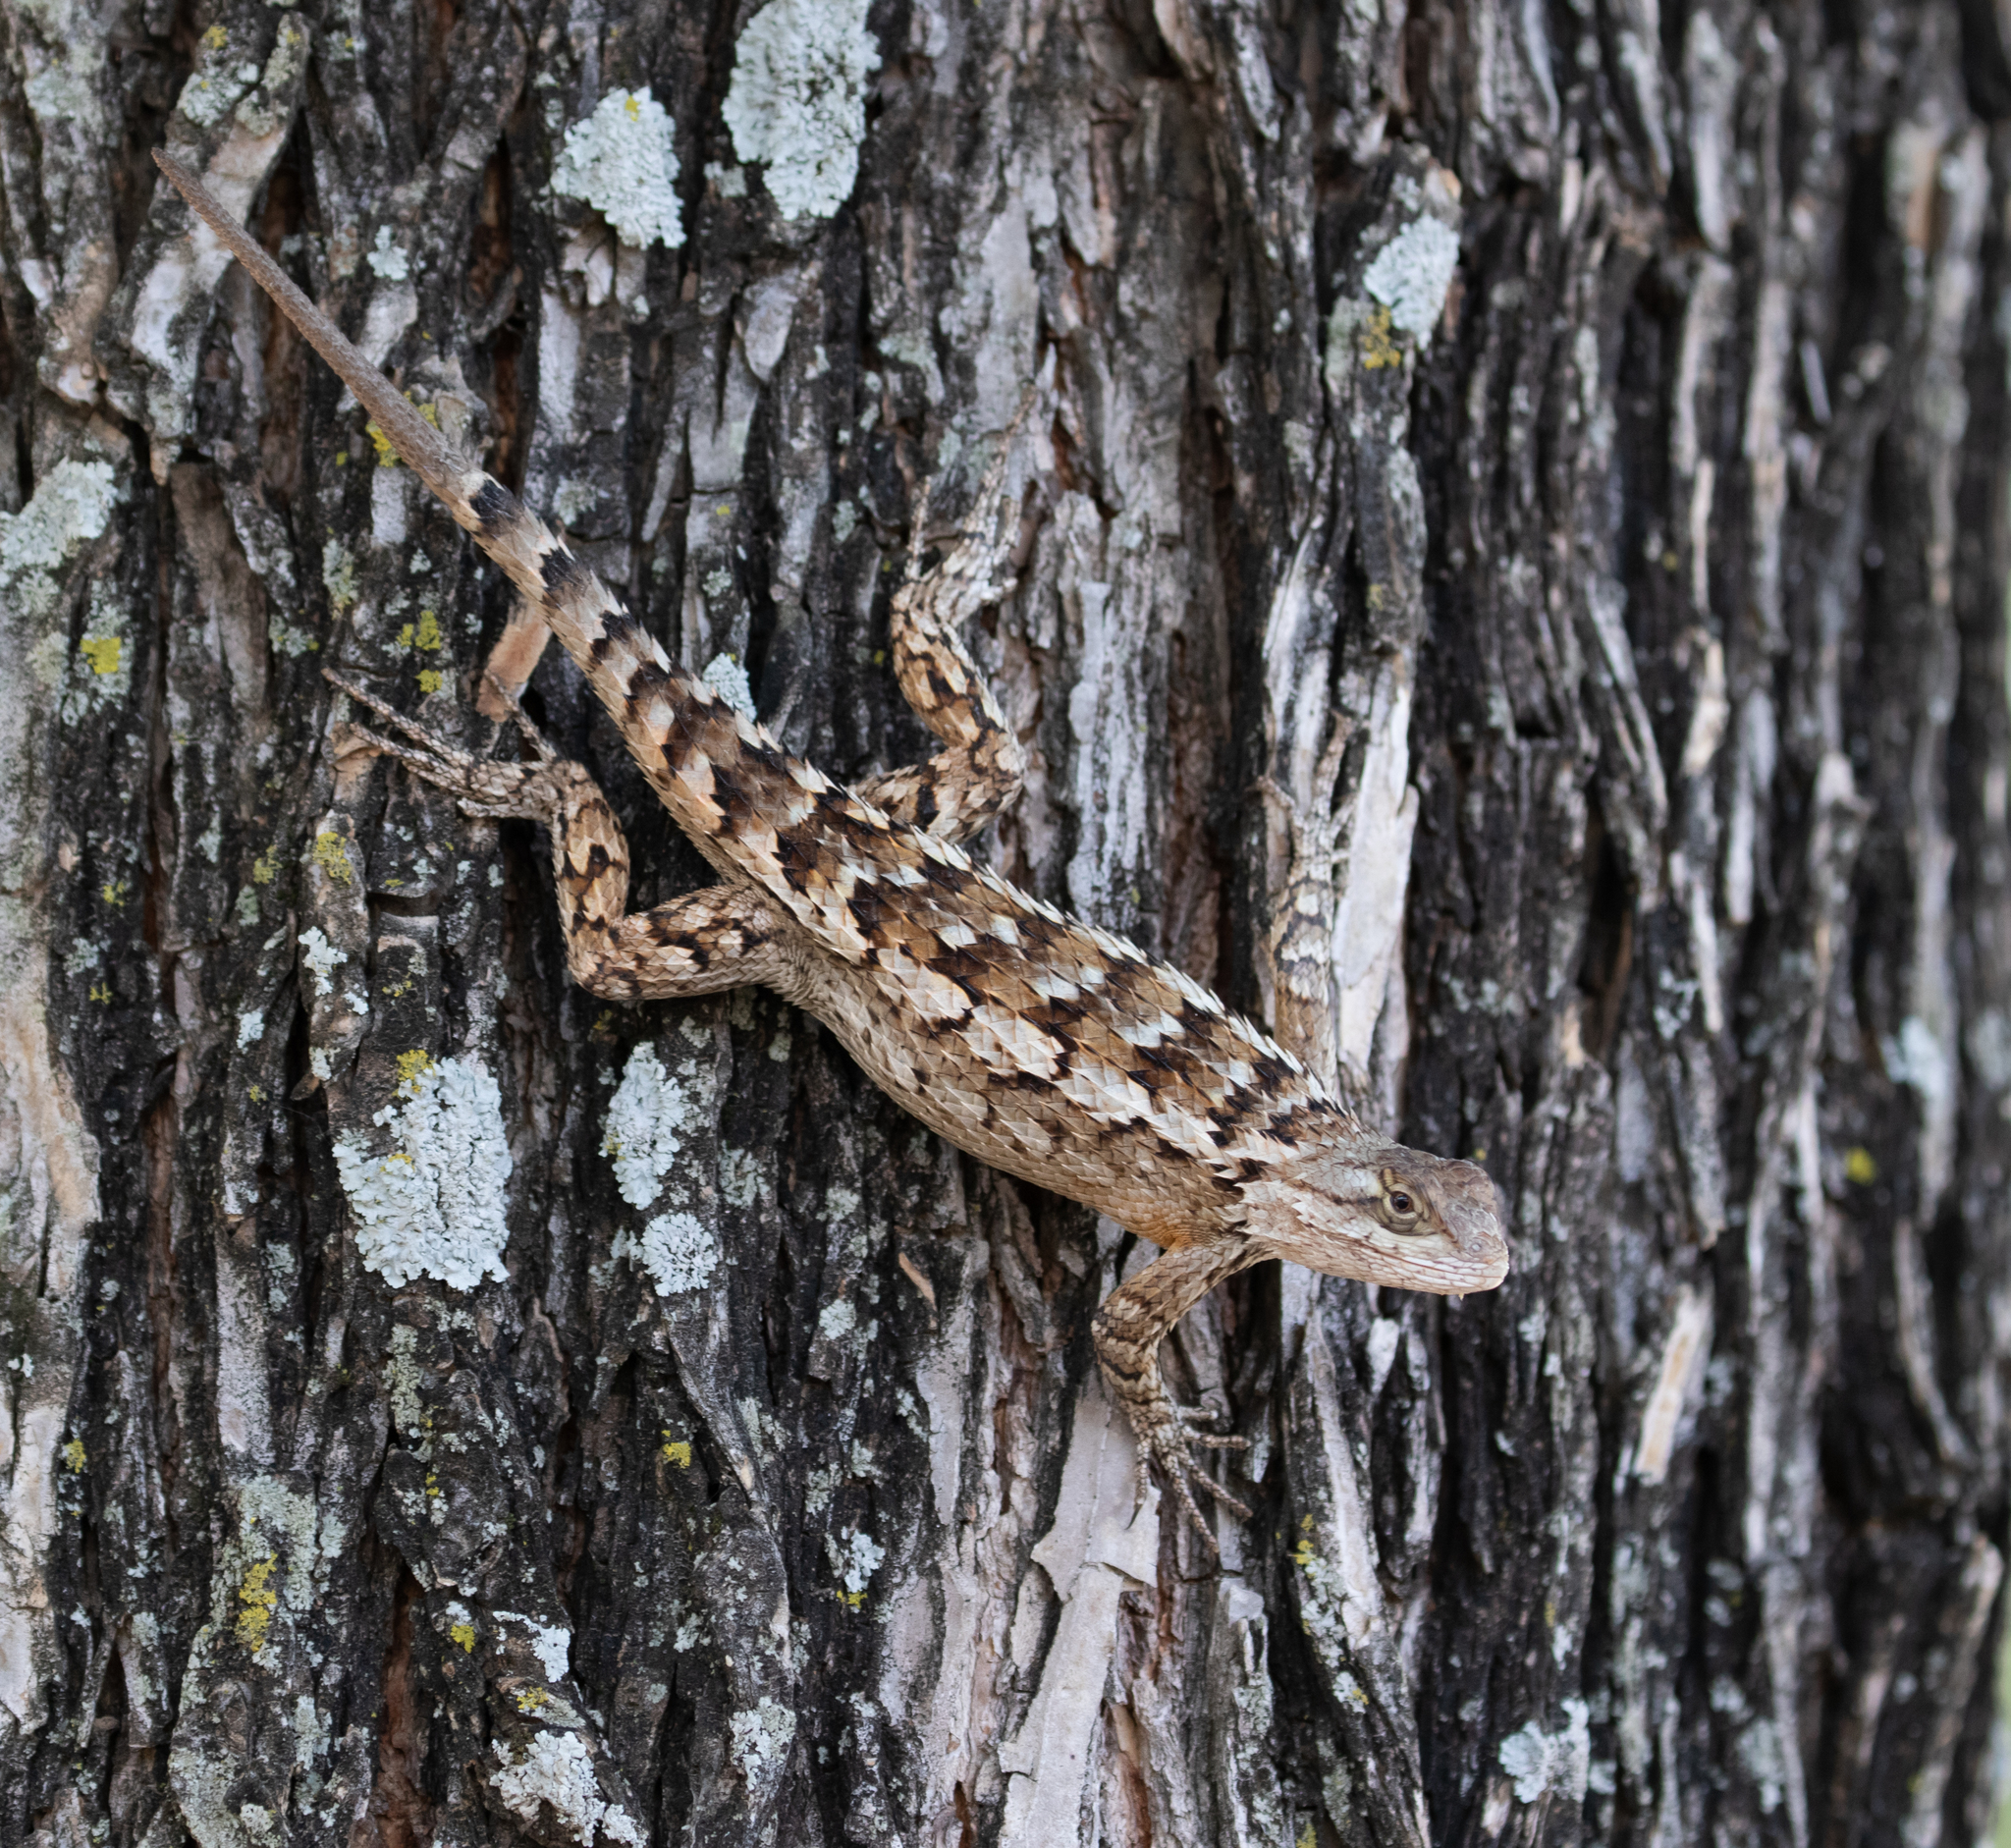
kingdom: Animalia
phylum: Chordata
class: Squamata
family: Phrynosomatidae
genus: Sceloporus
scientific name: Sceloporus olivaceus
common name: Texas spiny lizard
